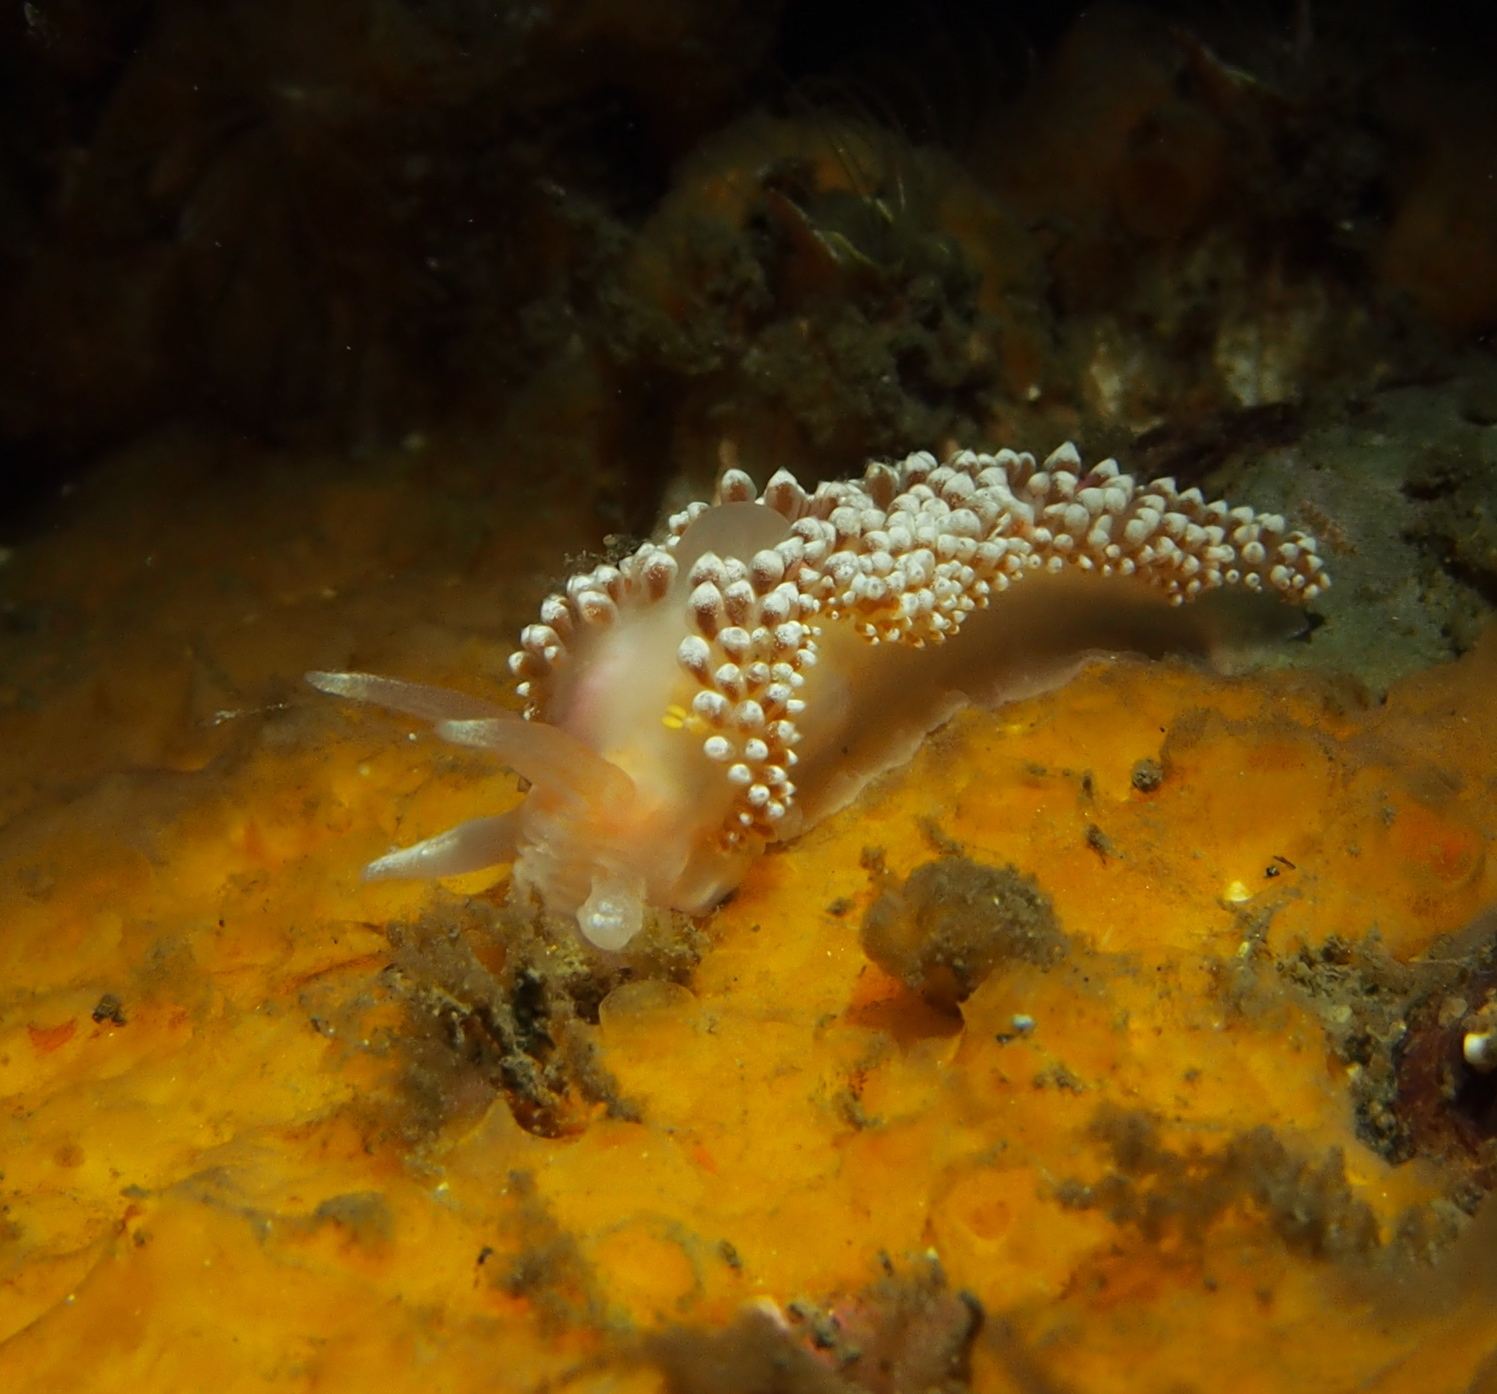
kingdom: Animalia
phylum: Mollusca
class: Gastropoda
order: Nudibranchia
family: Coryphellidae
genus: Coryphella
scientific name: Coryphella verrucosa
